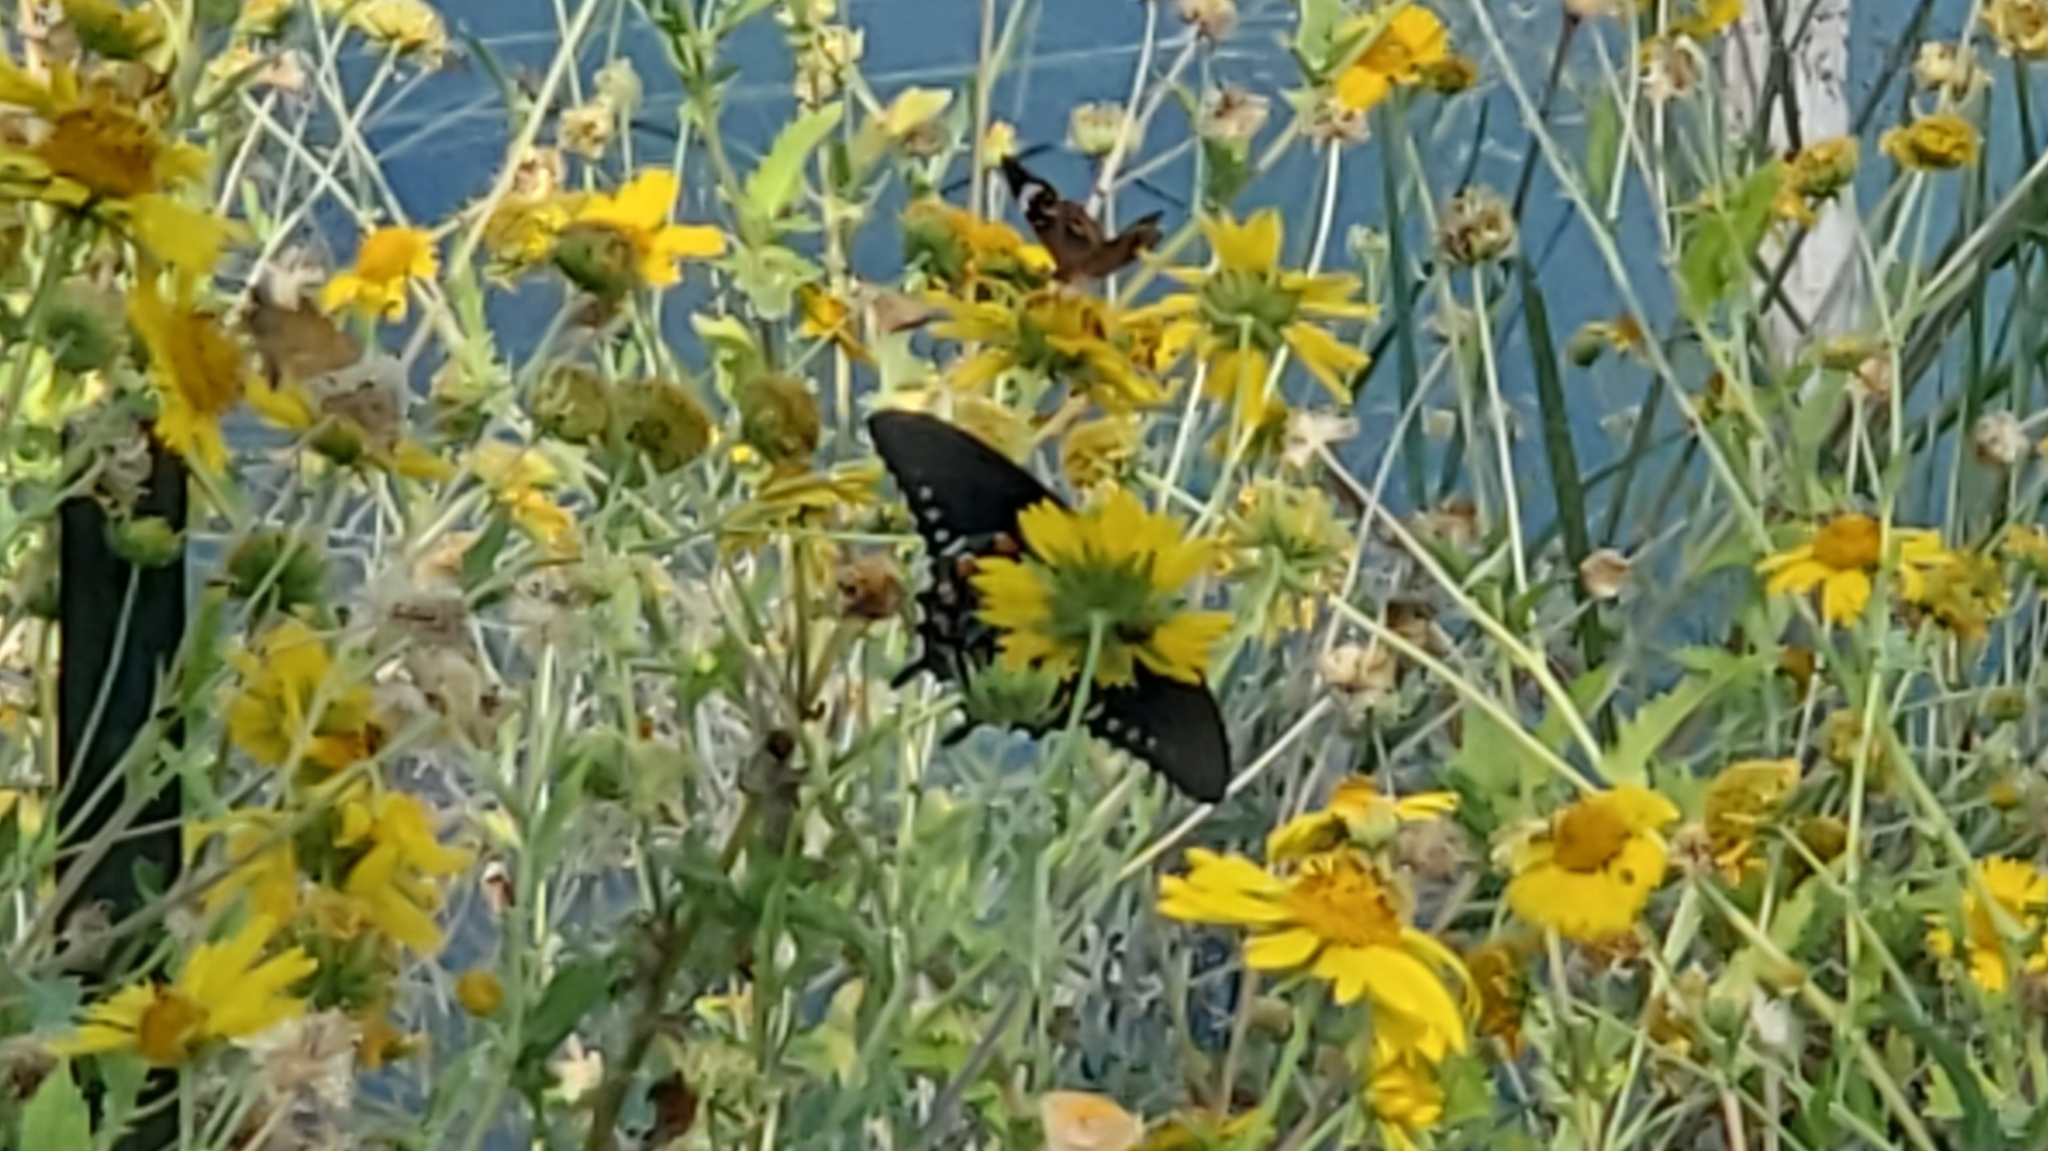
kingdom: Animalia
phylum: Arthropoda
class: Insecta
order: Lepidoptera
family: Papilionidae
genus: Battus
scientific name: Battus philenor
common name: Pipevine swallowtail
